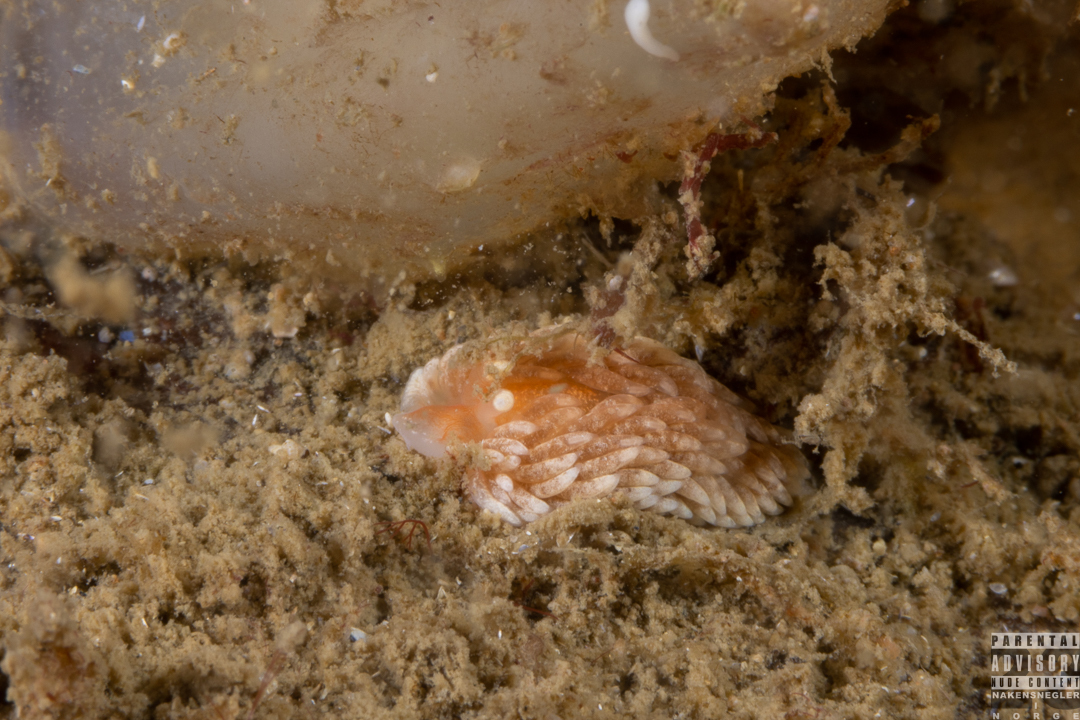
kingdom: Animalia
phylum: Mollusca
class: Gastropoda
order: Nudibranchia
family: Aeolidiidae
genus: Aeolidiella
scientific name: Aeolidiella glauca
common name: Orange-brown aeolid
